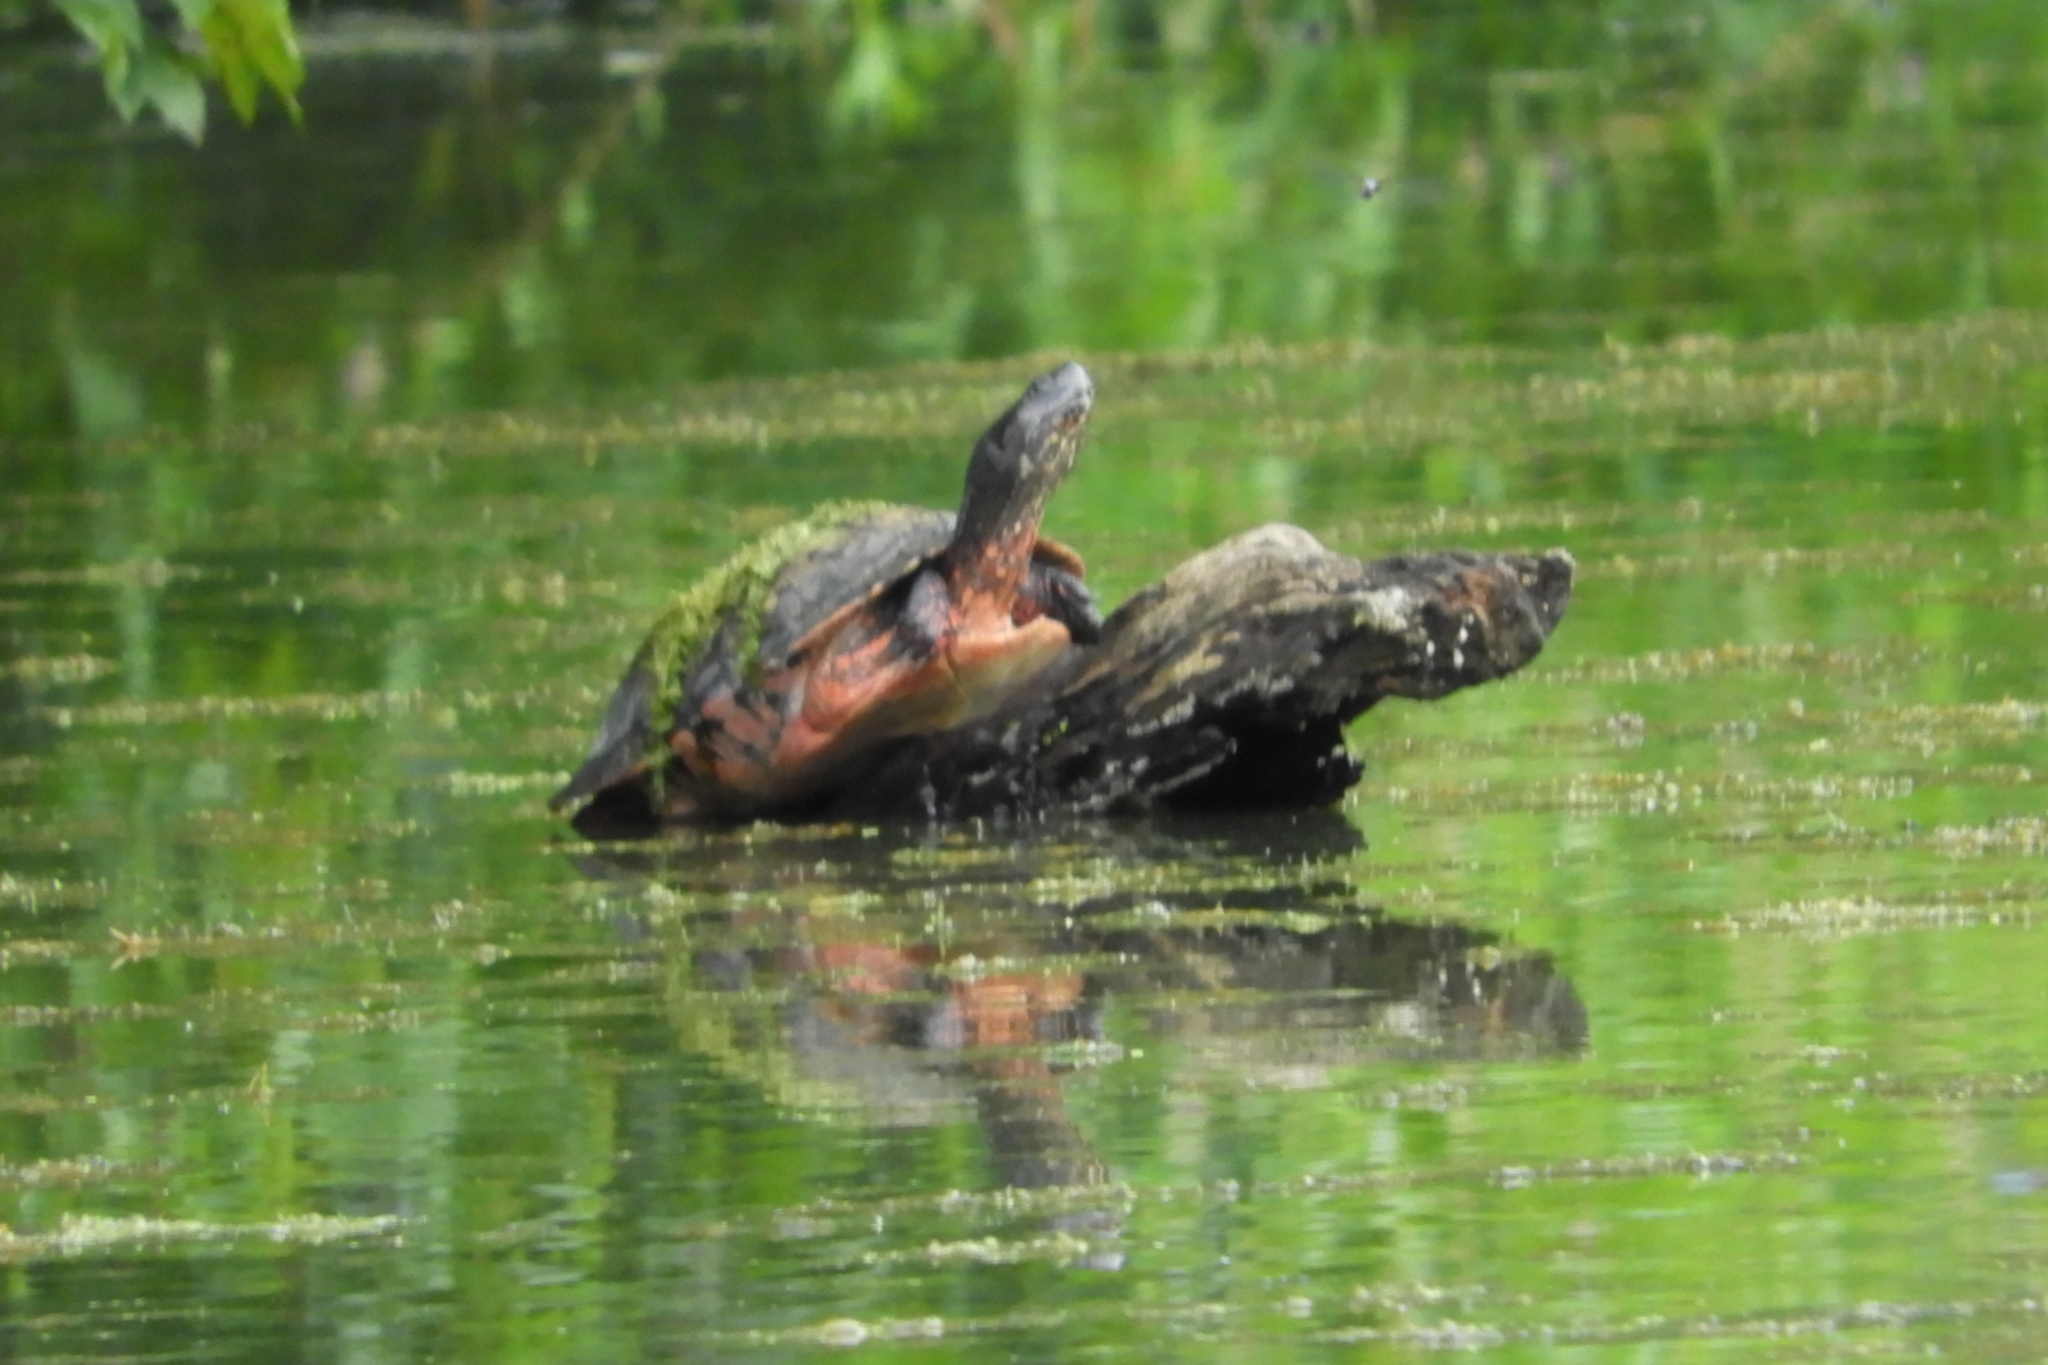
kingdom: Animalia
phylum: Chordata
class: Testudines
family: Emydidae
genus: Pseudemys
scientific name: Pseudemys rubriventris
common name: American red-bellied turtle
